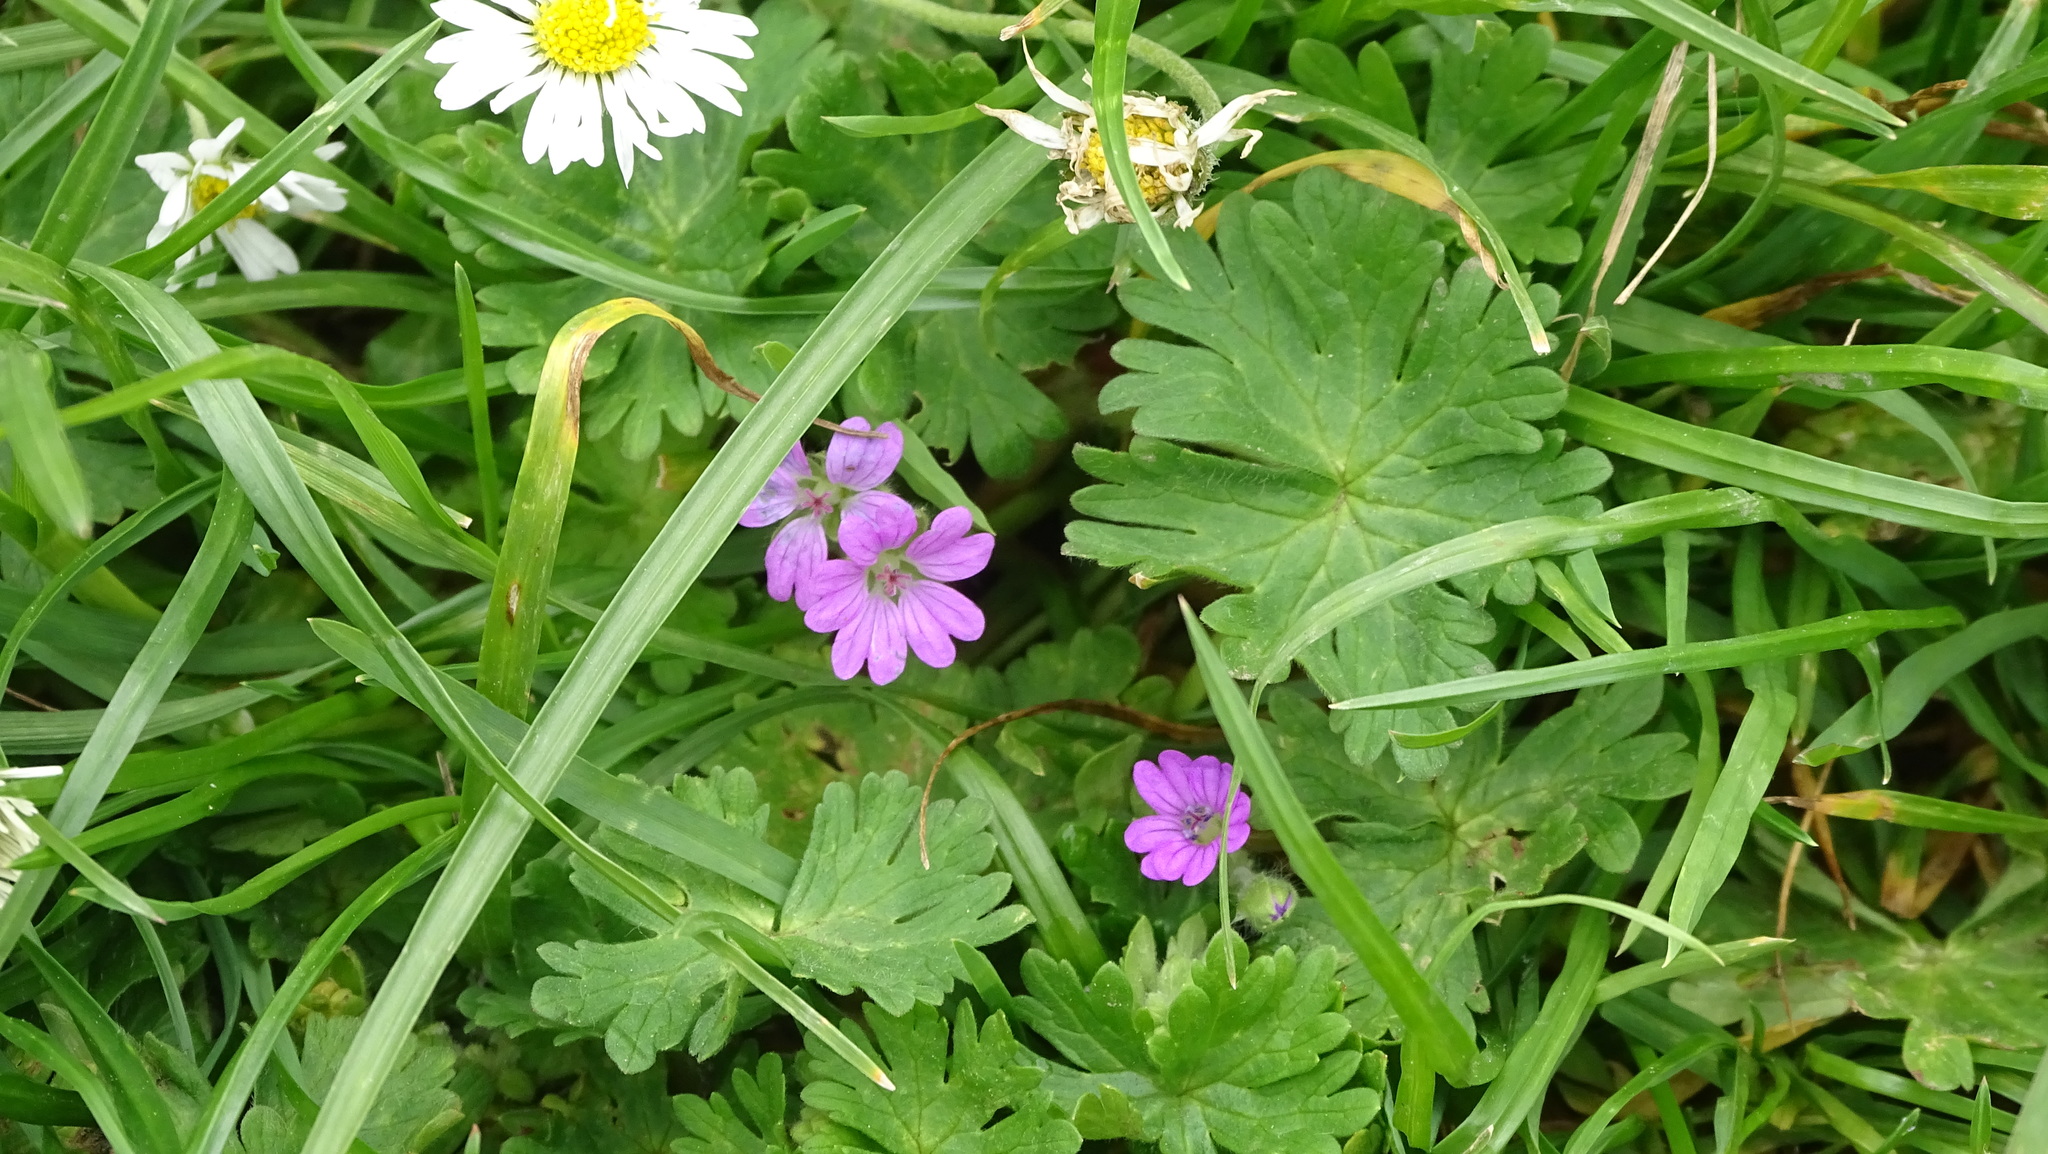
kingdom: Plantae
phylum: Tracheophyta
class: Magnoliopsida
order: Geraniales
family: Geraniaceae
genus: Geranium
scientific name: Geranium molle
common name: Dove's-foot crane's-bill
